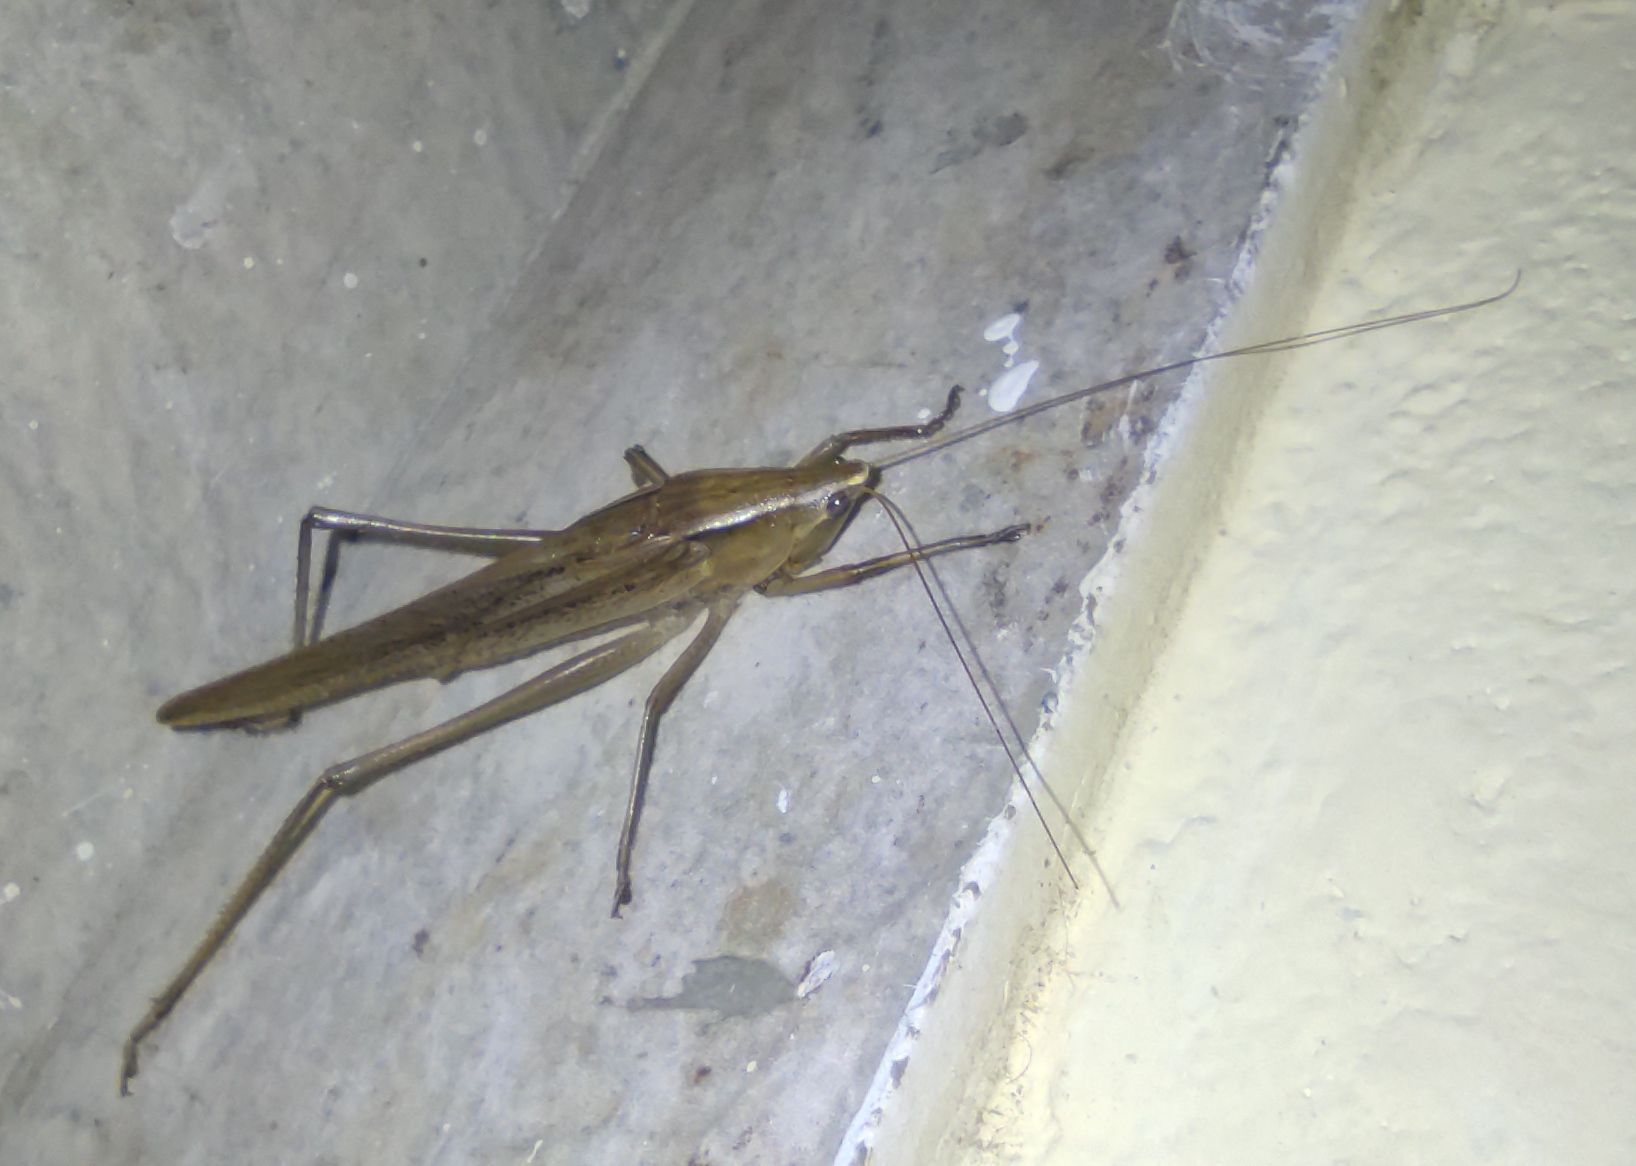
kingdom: Animalia
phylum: Arthropoda
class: Insecta
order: Orthoptera
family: Tettigoniidae
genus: Neoconocephalus
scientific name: Neoconocephalus triops
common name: Broad-tipped conehead
